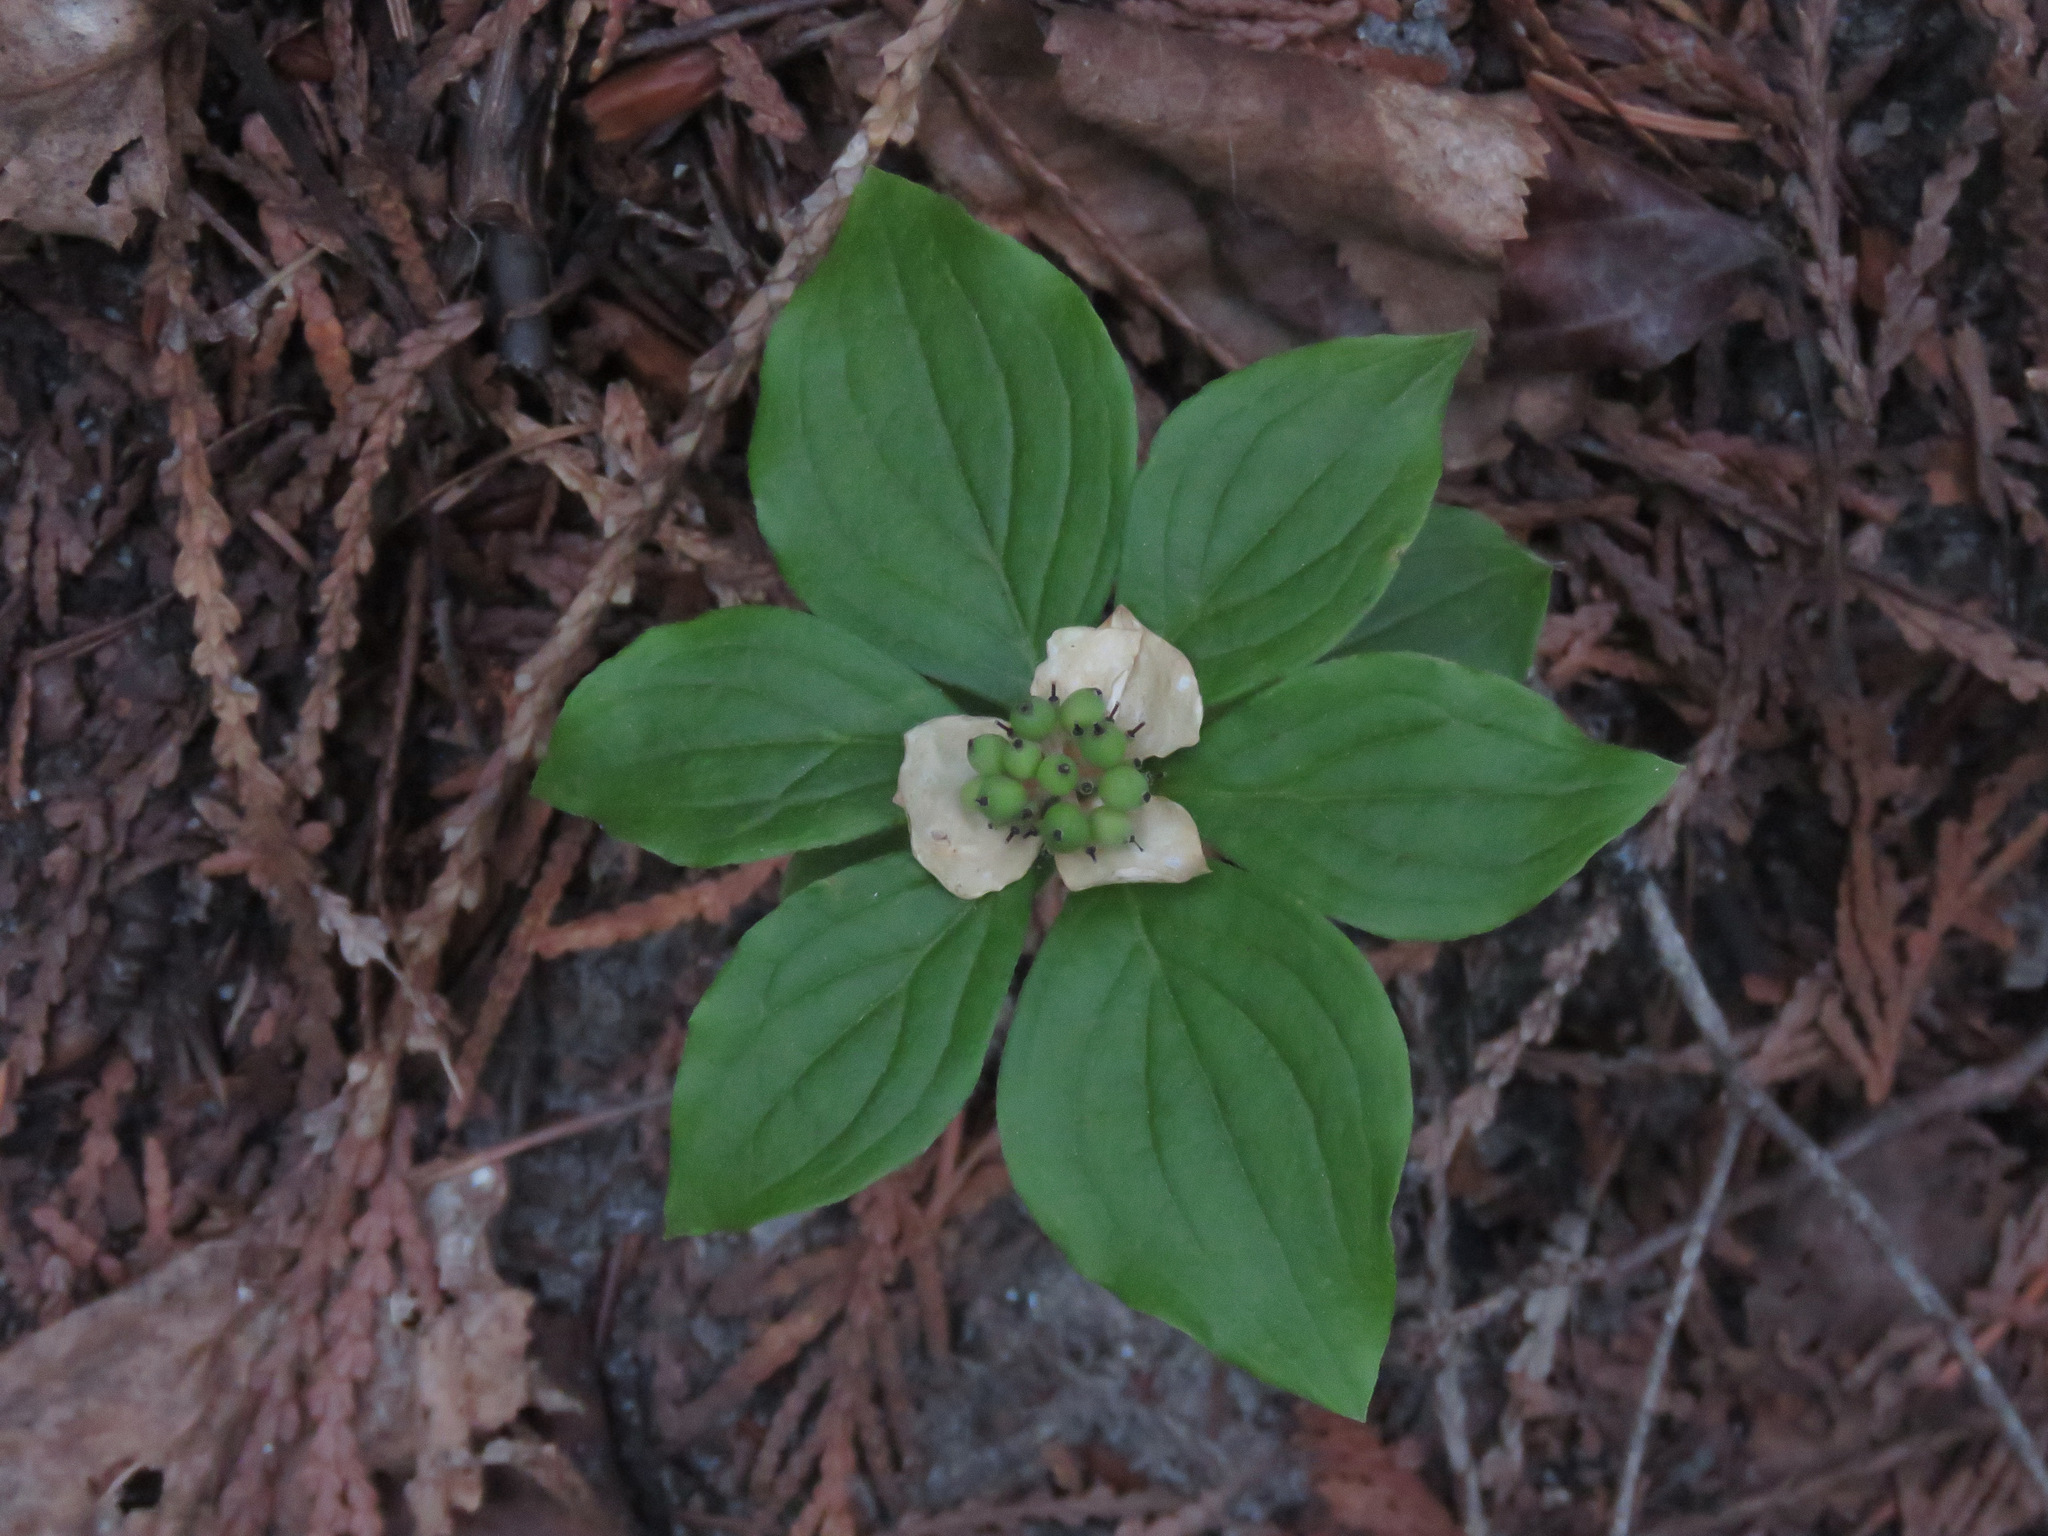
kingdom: Plantae
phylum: Tracheophyta
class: Magnoliopsida
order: Cornales
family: Cornaceae
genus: Cornus
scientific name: Cornus unalaschkensis
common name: Alaska bunchberry
